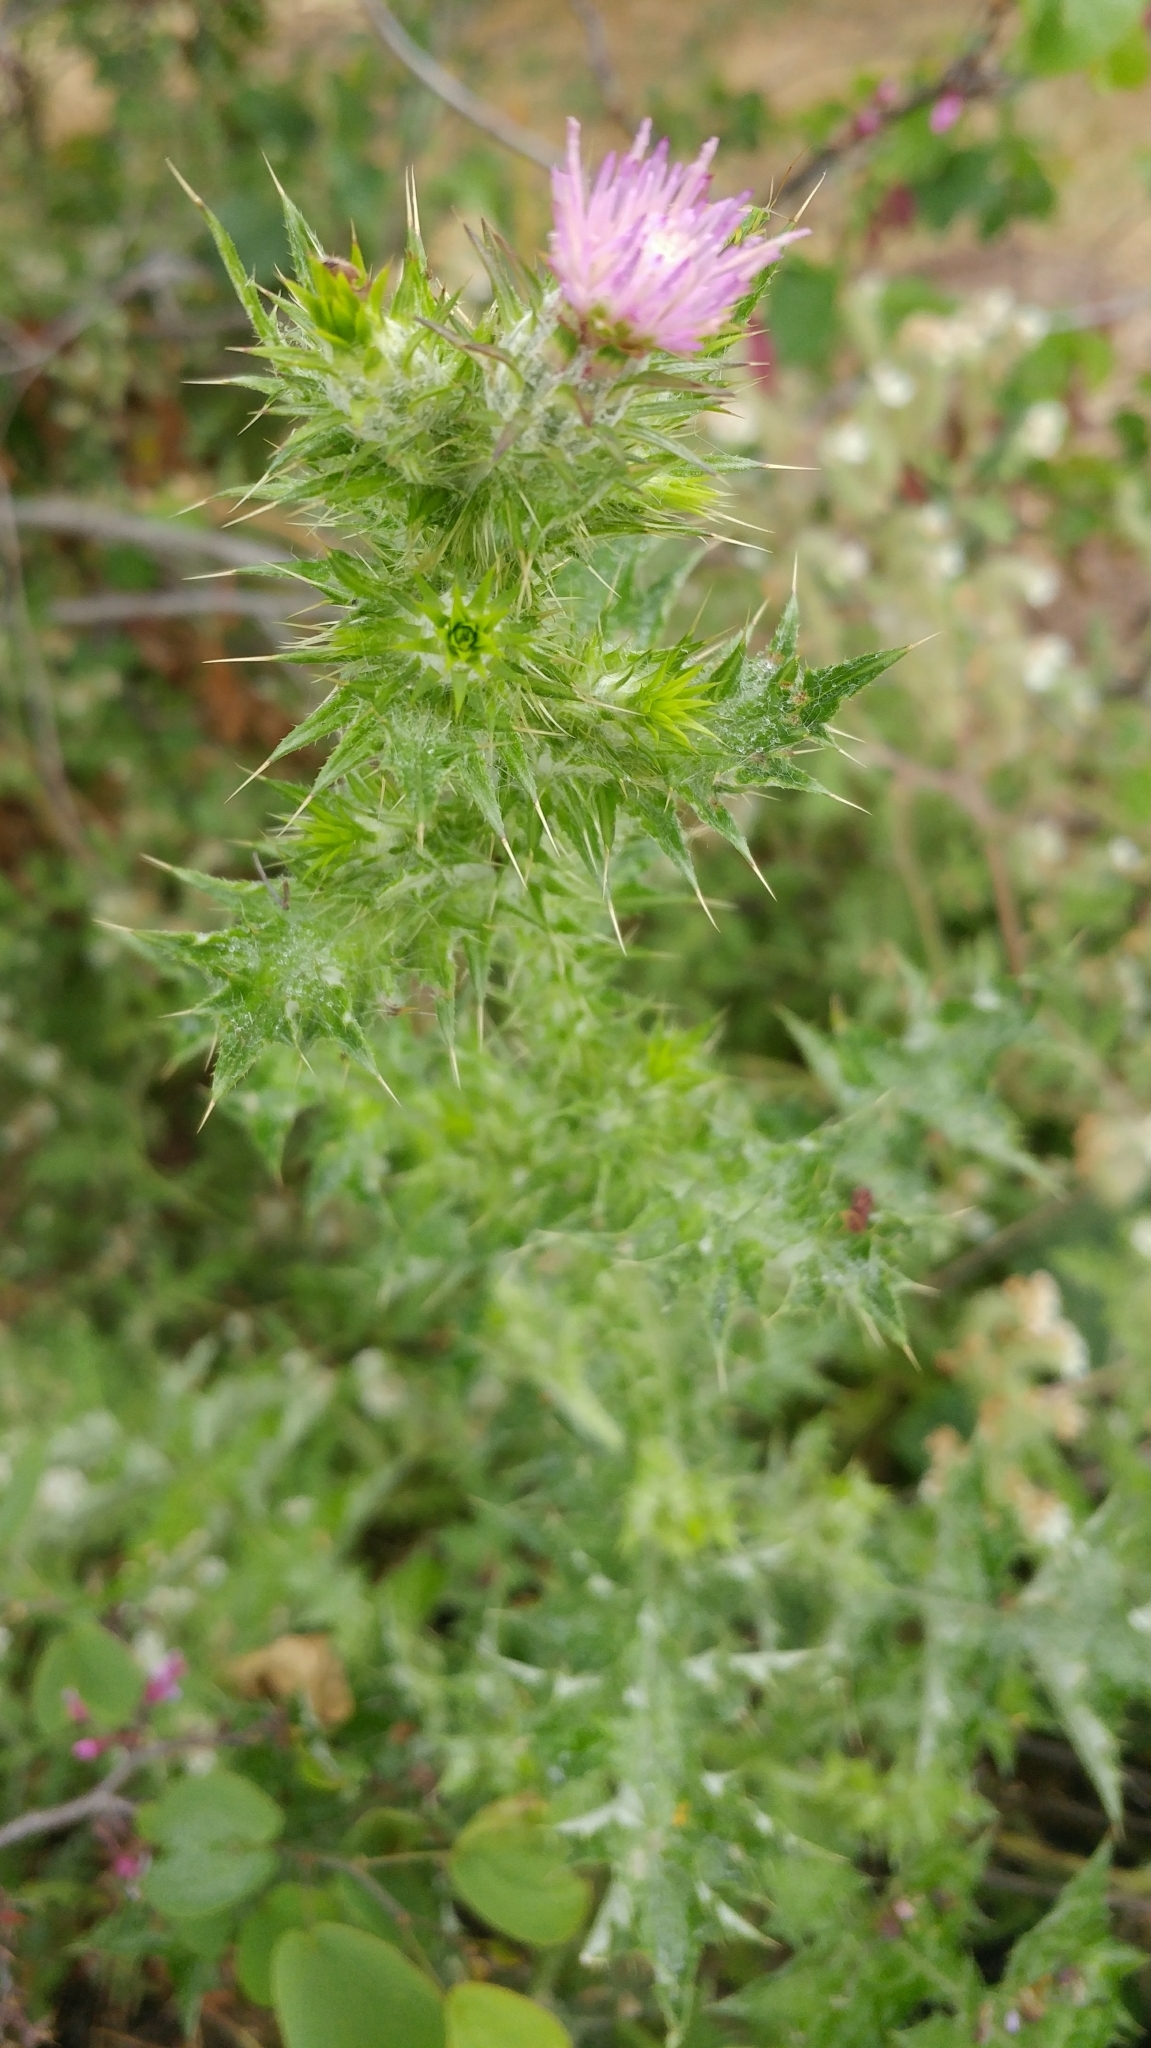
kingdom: Plantae
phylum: Tracheophyta
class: Magnoliopsida
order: Asterales
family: Asteraceae
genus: Carduus
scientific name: Carduus pycnocephalus
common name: Plymouth thistle
